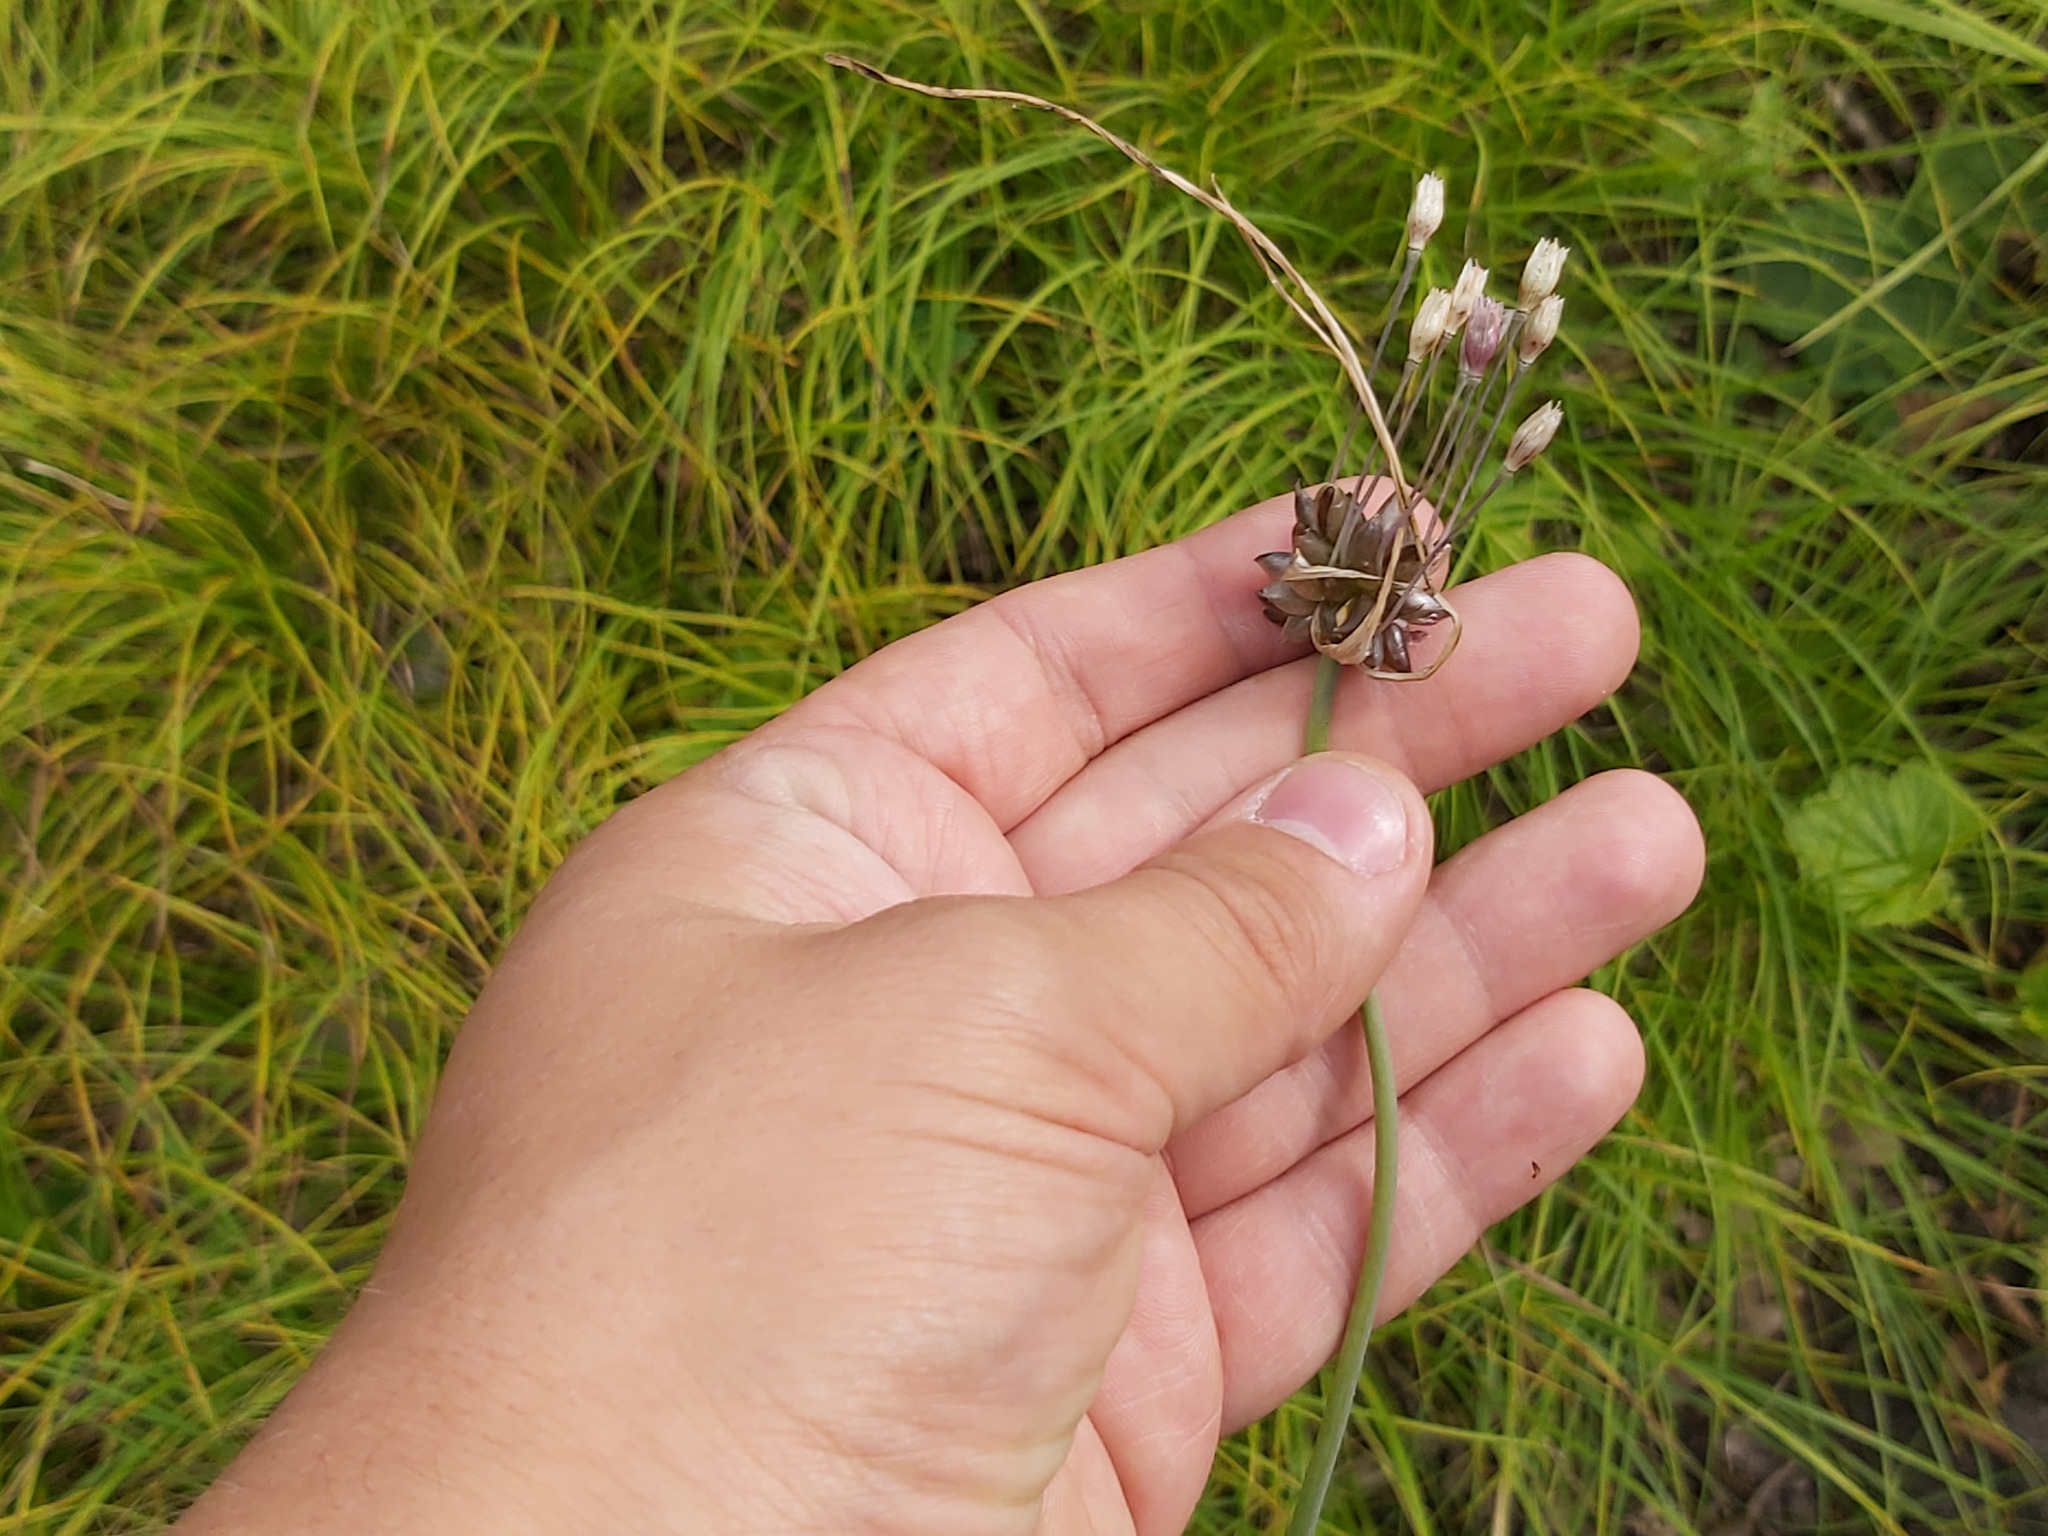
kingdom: Plantae
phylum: Tracheophyta
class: Liliopsida
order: Asparagales
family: Amaryllidaceae
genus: Allium
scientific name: Allium oleraceum
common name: Field garlic
